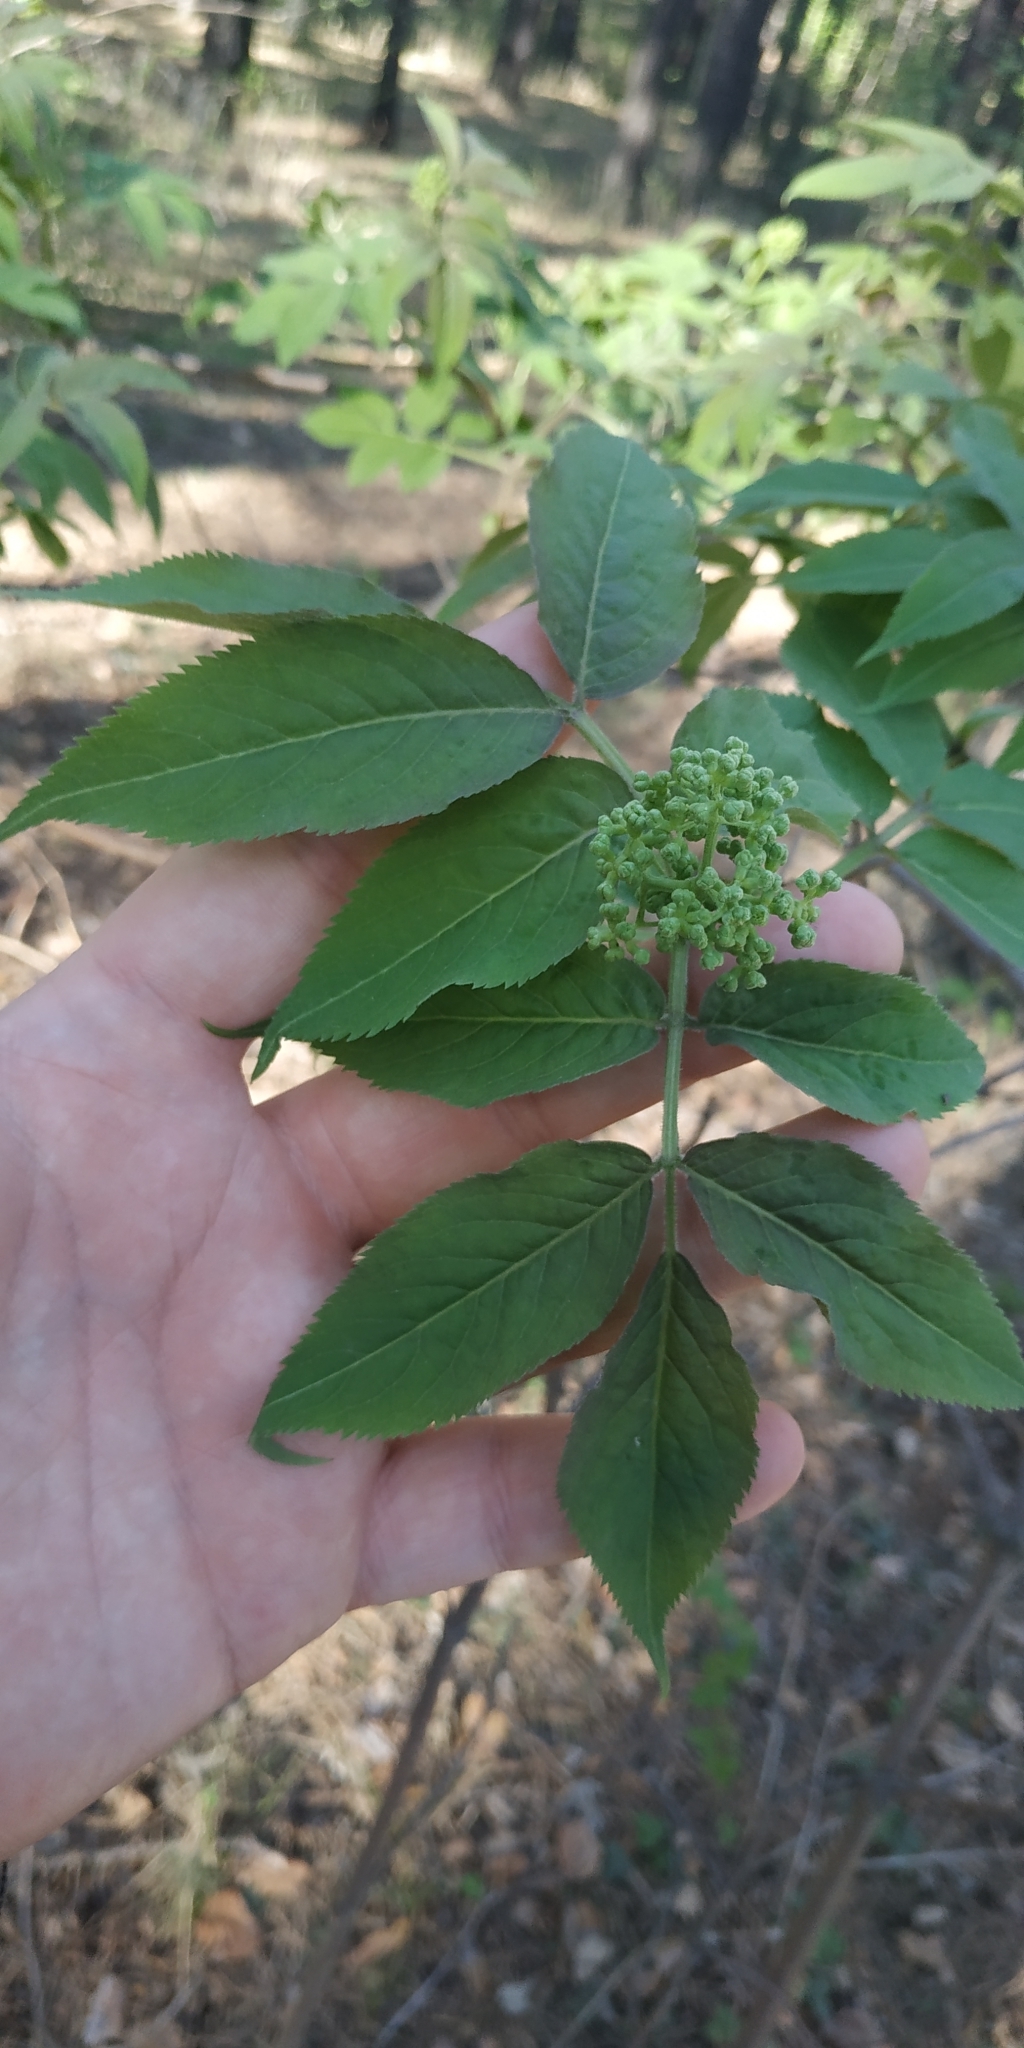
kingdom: Plantae
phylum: Tracheophyta
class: Magnoliopsida
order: Dipsacales
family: Viburnaceae
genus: Sambucus
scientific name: Sambucus sibirica
